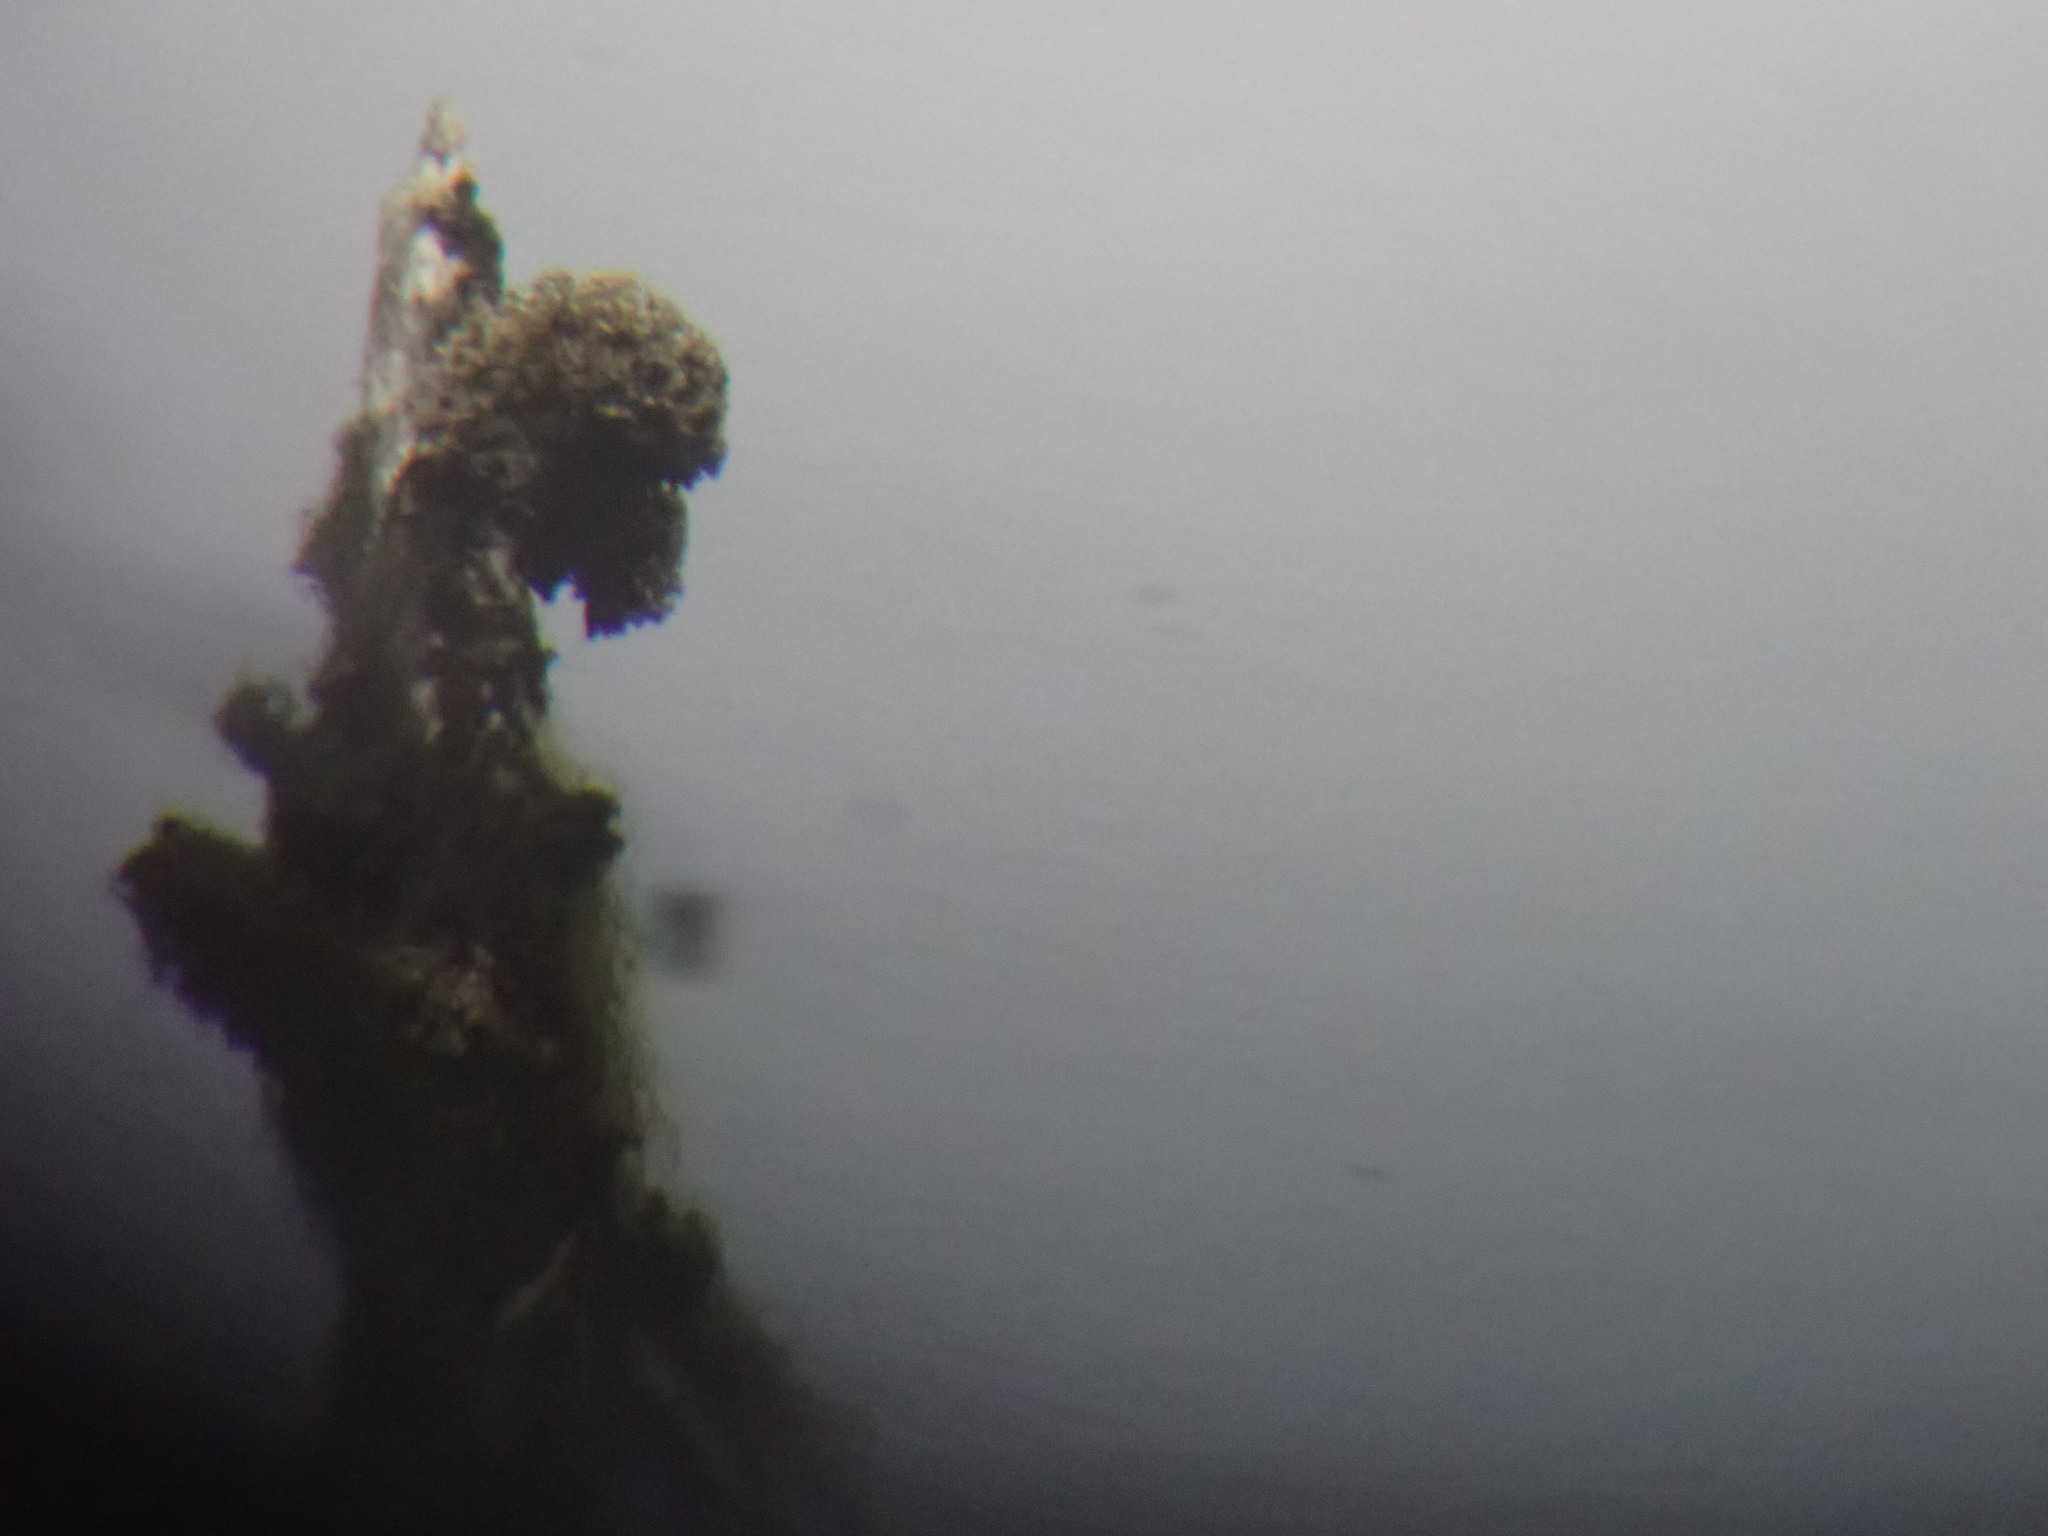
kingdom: Fungi
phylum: Ascomycota
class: Lecanoromycetes
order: Caliciales
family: Caliciaceae
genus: Acroscyphus
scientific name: Acroscyphus sphaerophoroides
